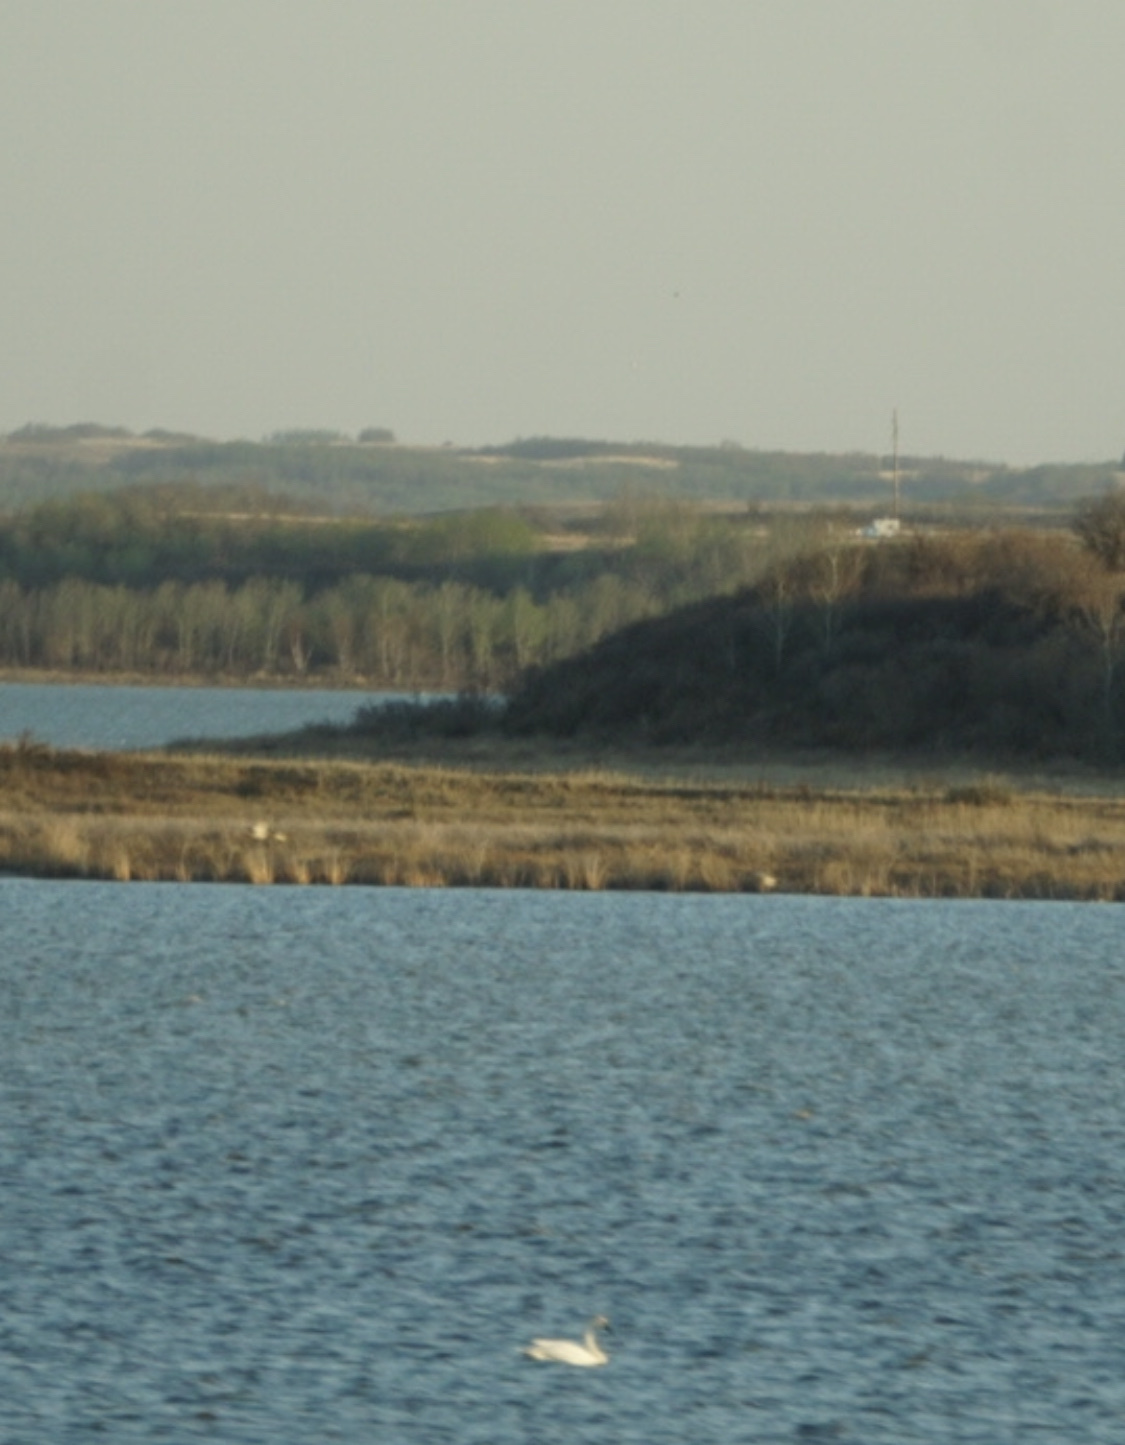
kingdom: Animalia
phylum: Chordata
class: Aves
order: Anseriformes
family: Anatidae
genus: Cygnus
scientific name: Cygnus columbianus
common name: Tundra swan
